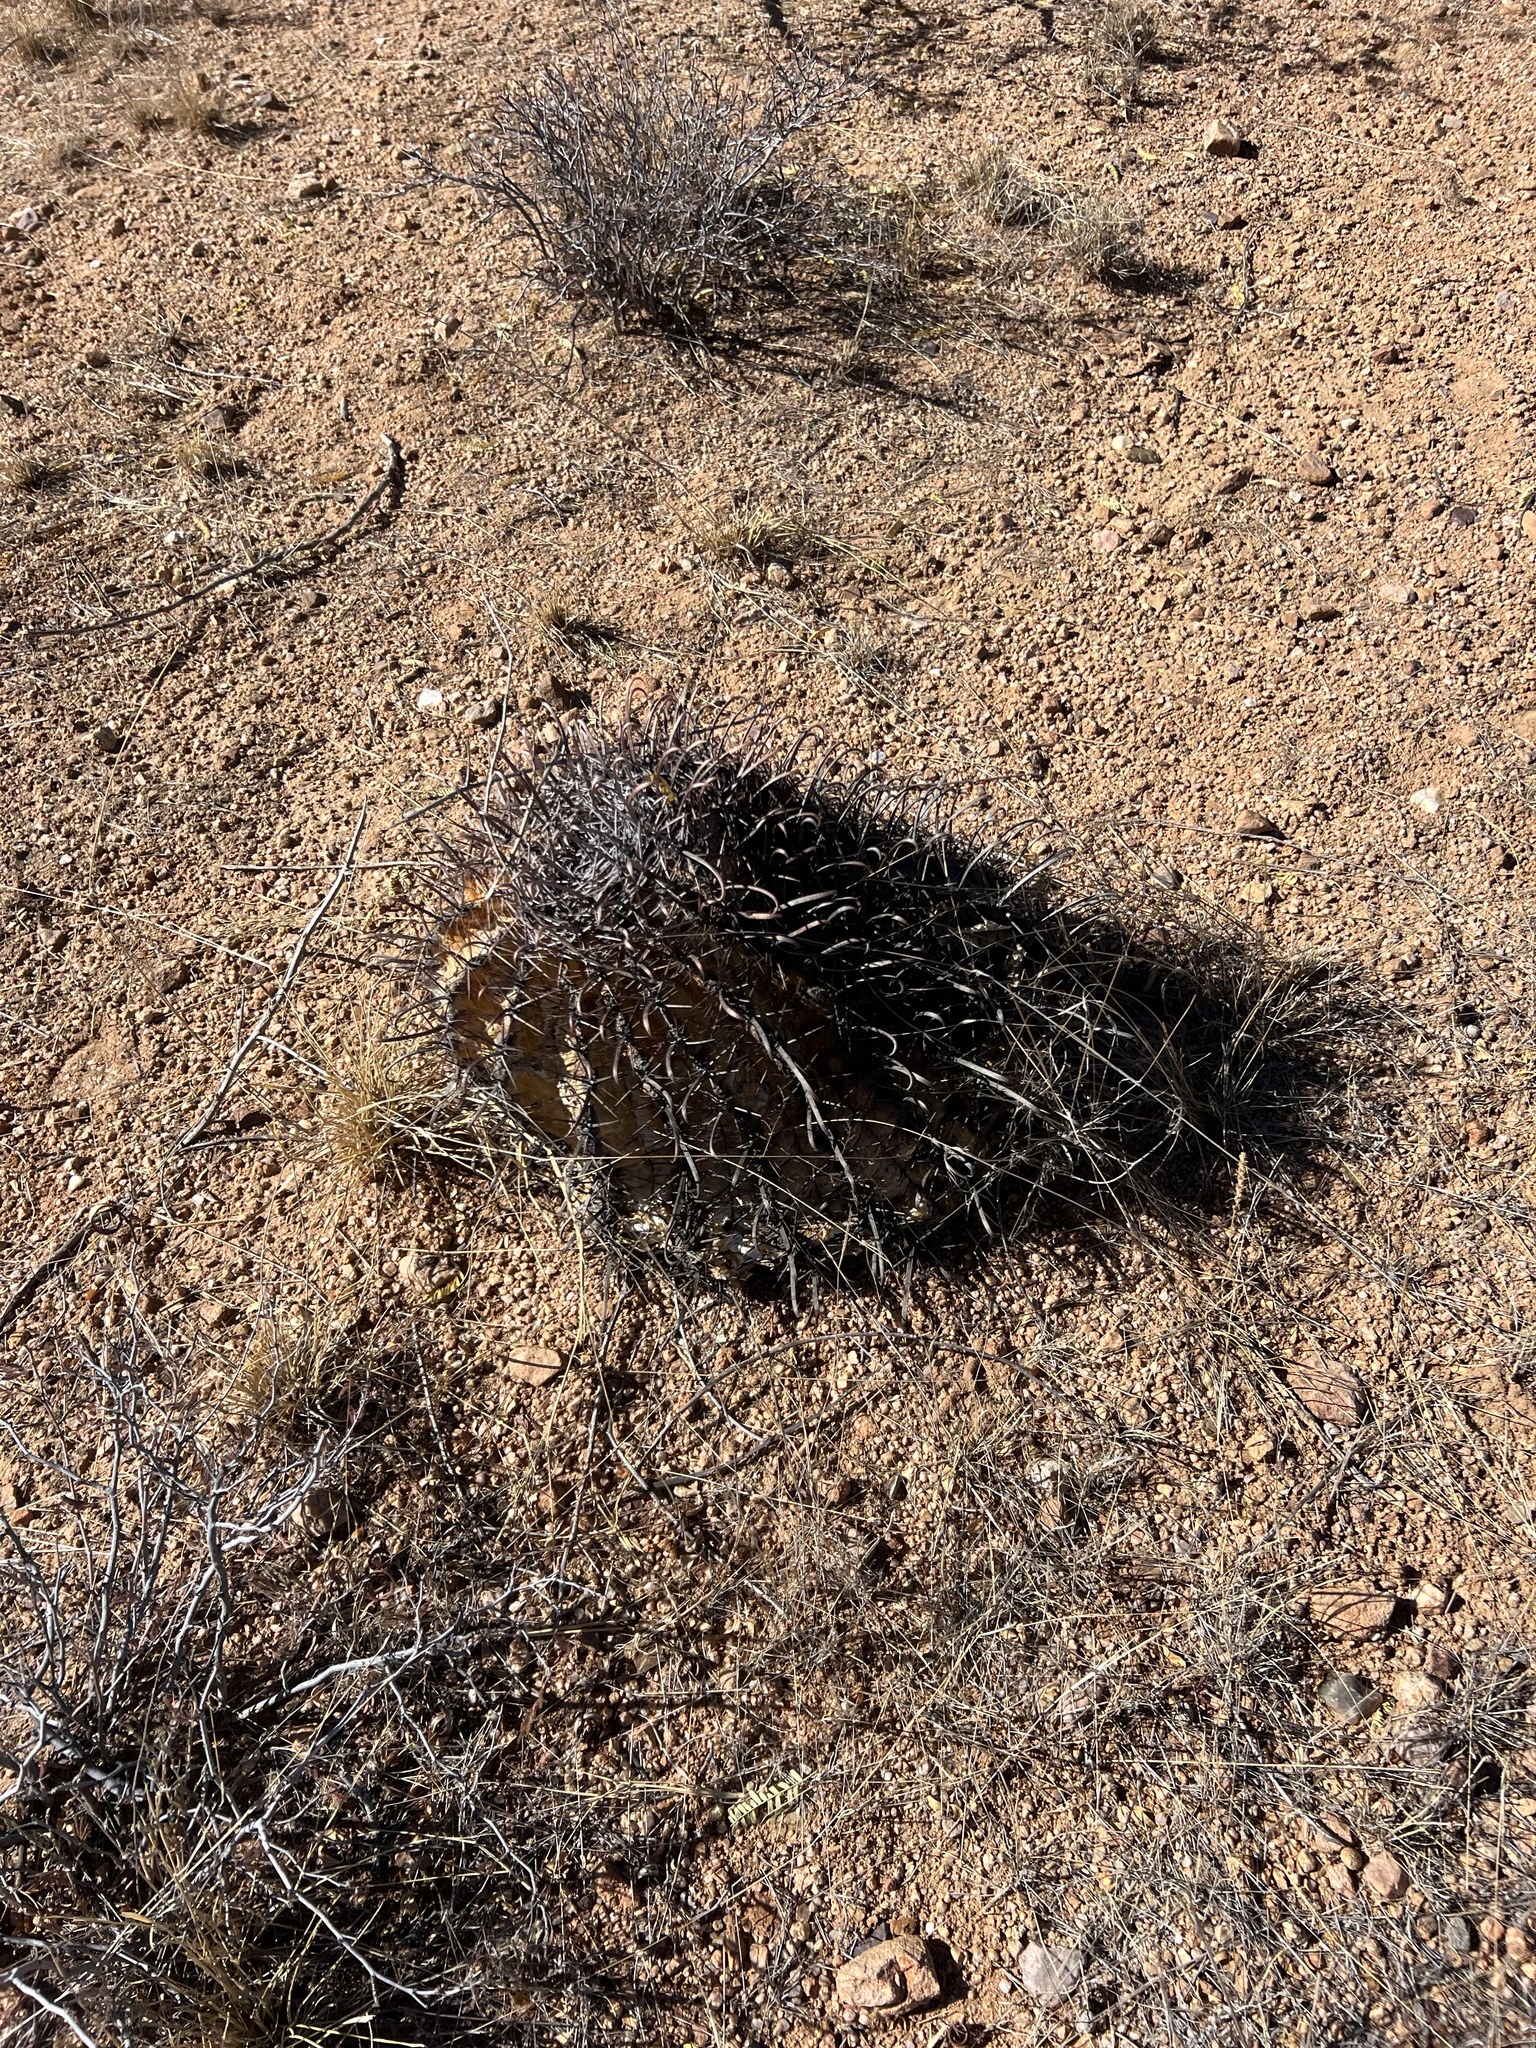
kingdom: Plantae
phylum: Tracheophyta
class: Magnoliopsida
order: Caryophyllales
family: Cactaceae
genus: Ferocactus
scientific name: Ferocactus wislizeni
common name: Candy barrel cactus
